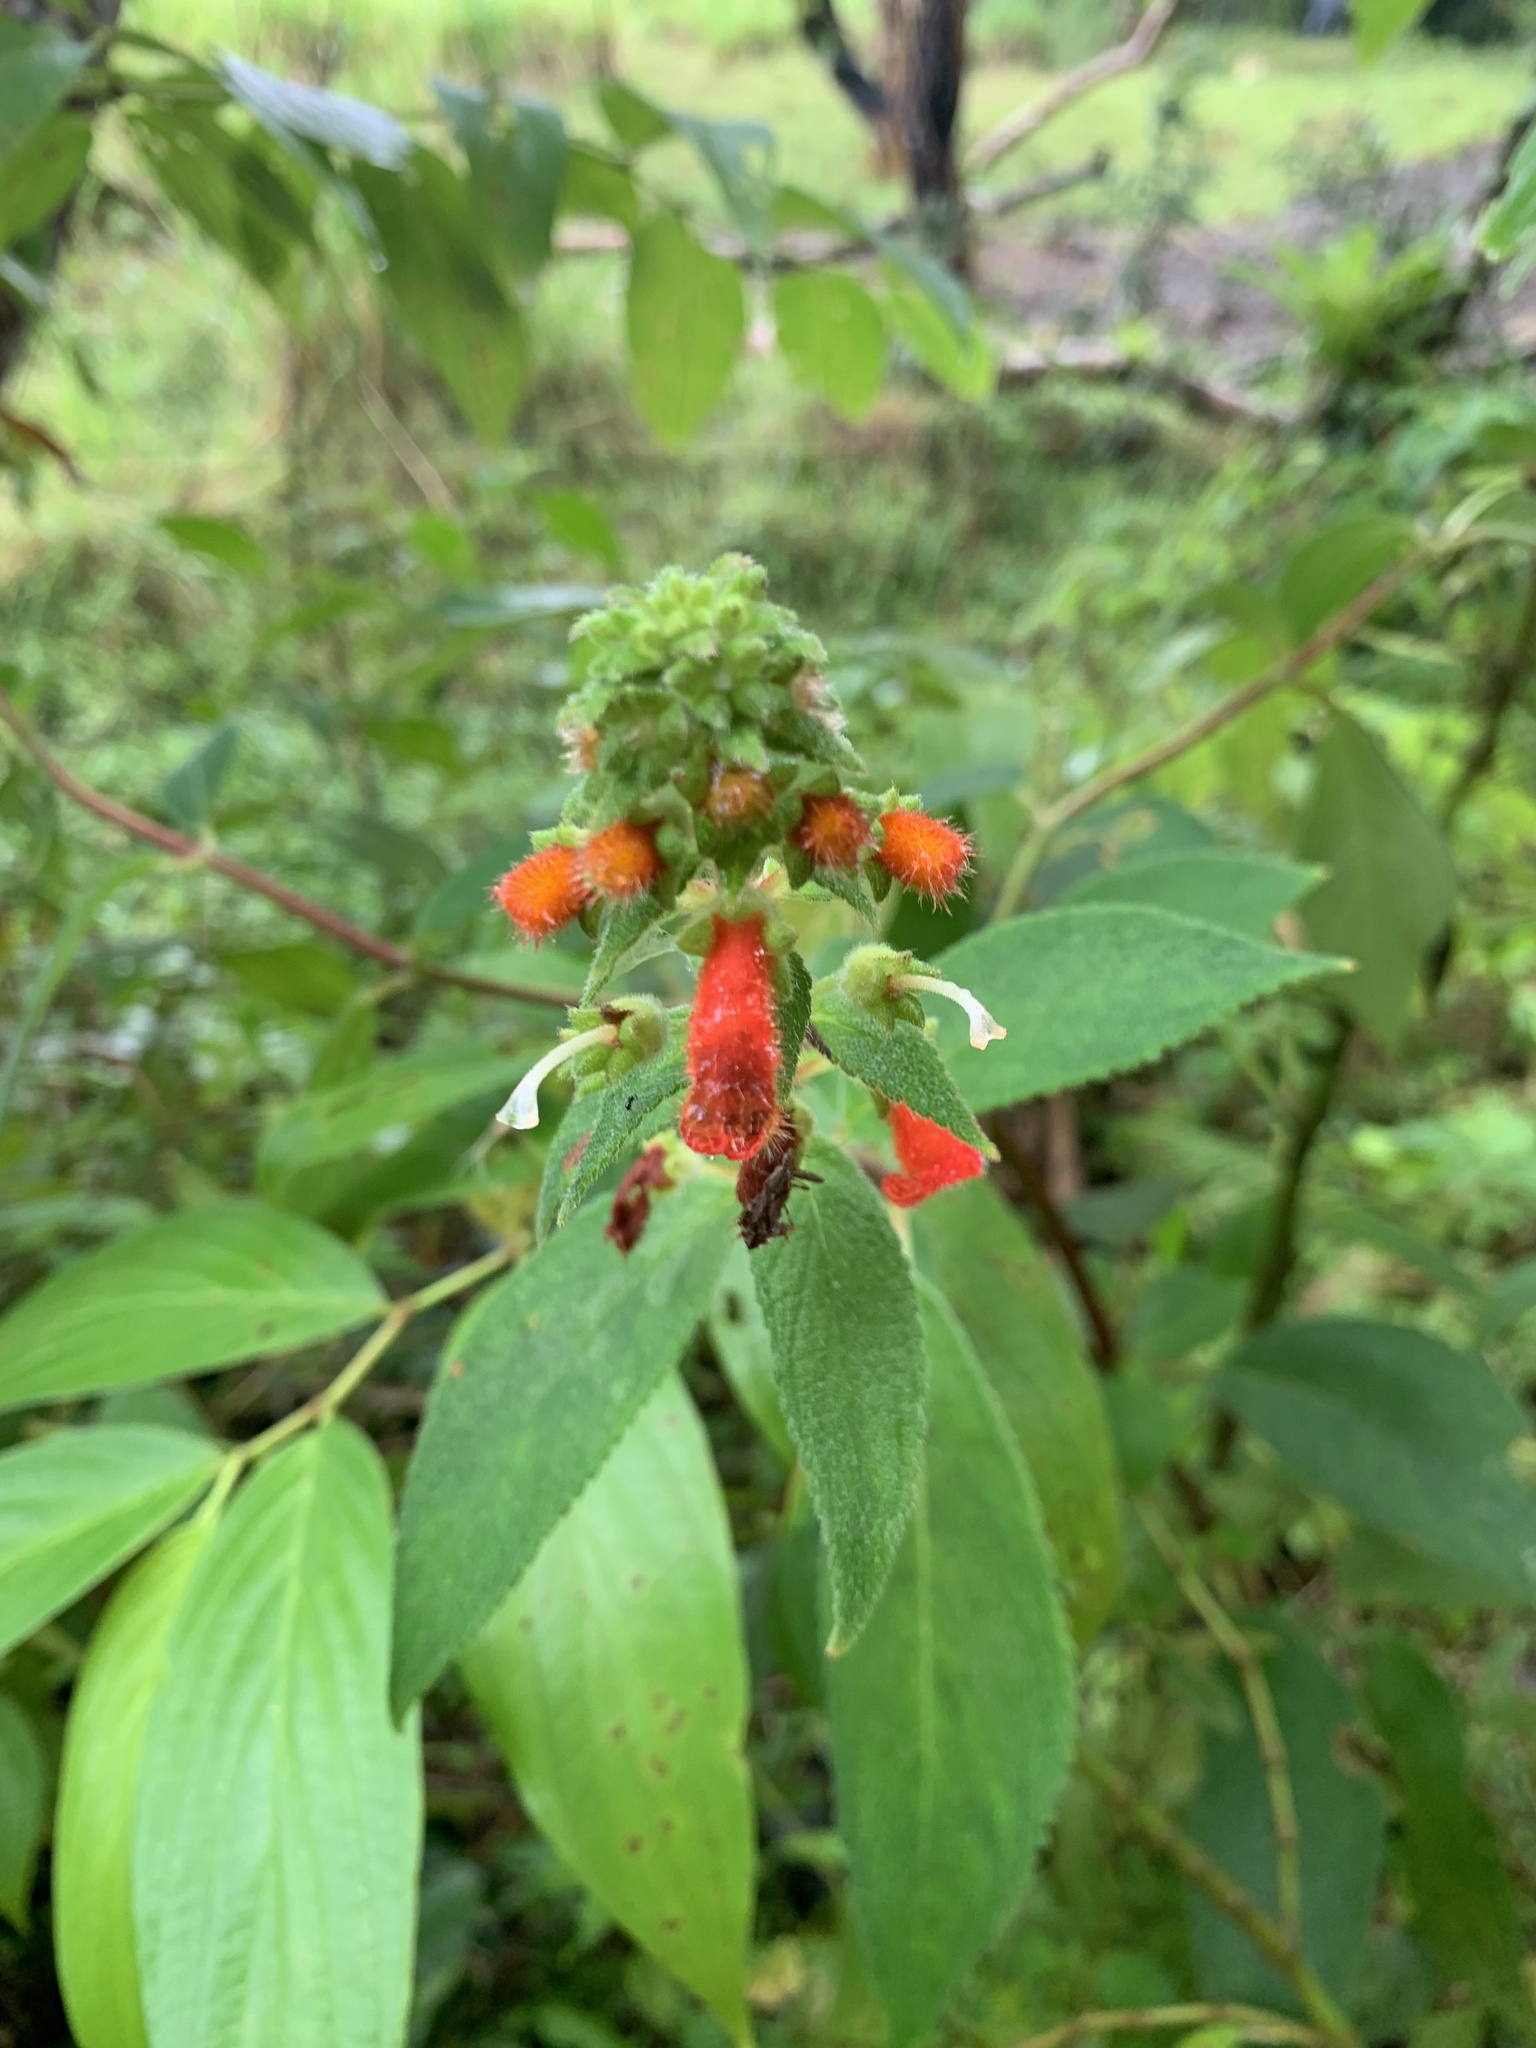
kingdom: Plantae
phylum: Tracheophyta
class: Magnoliopsida
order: Lamiales
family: Gesneriaceae
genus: Kohleria
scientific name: Kohleria spicata
